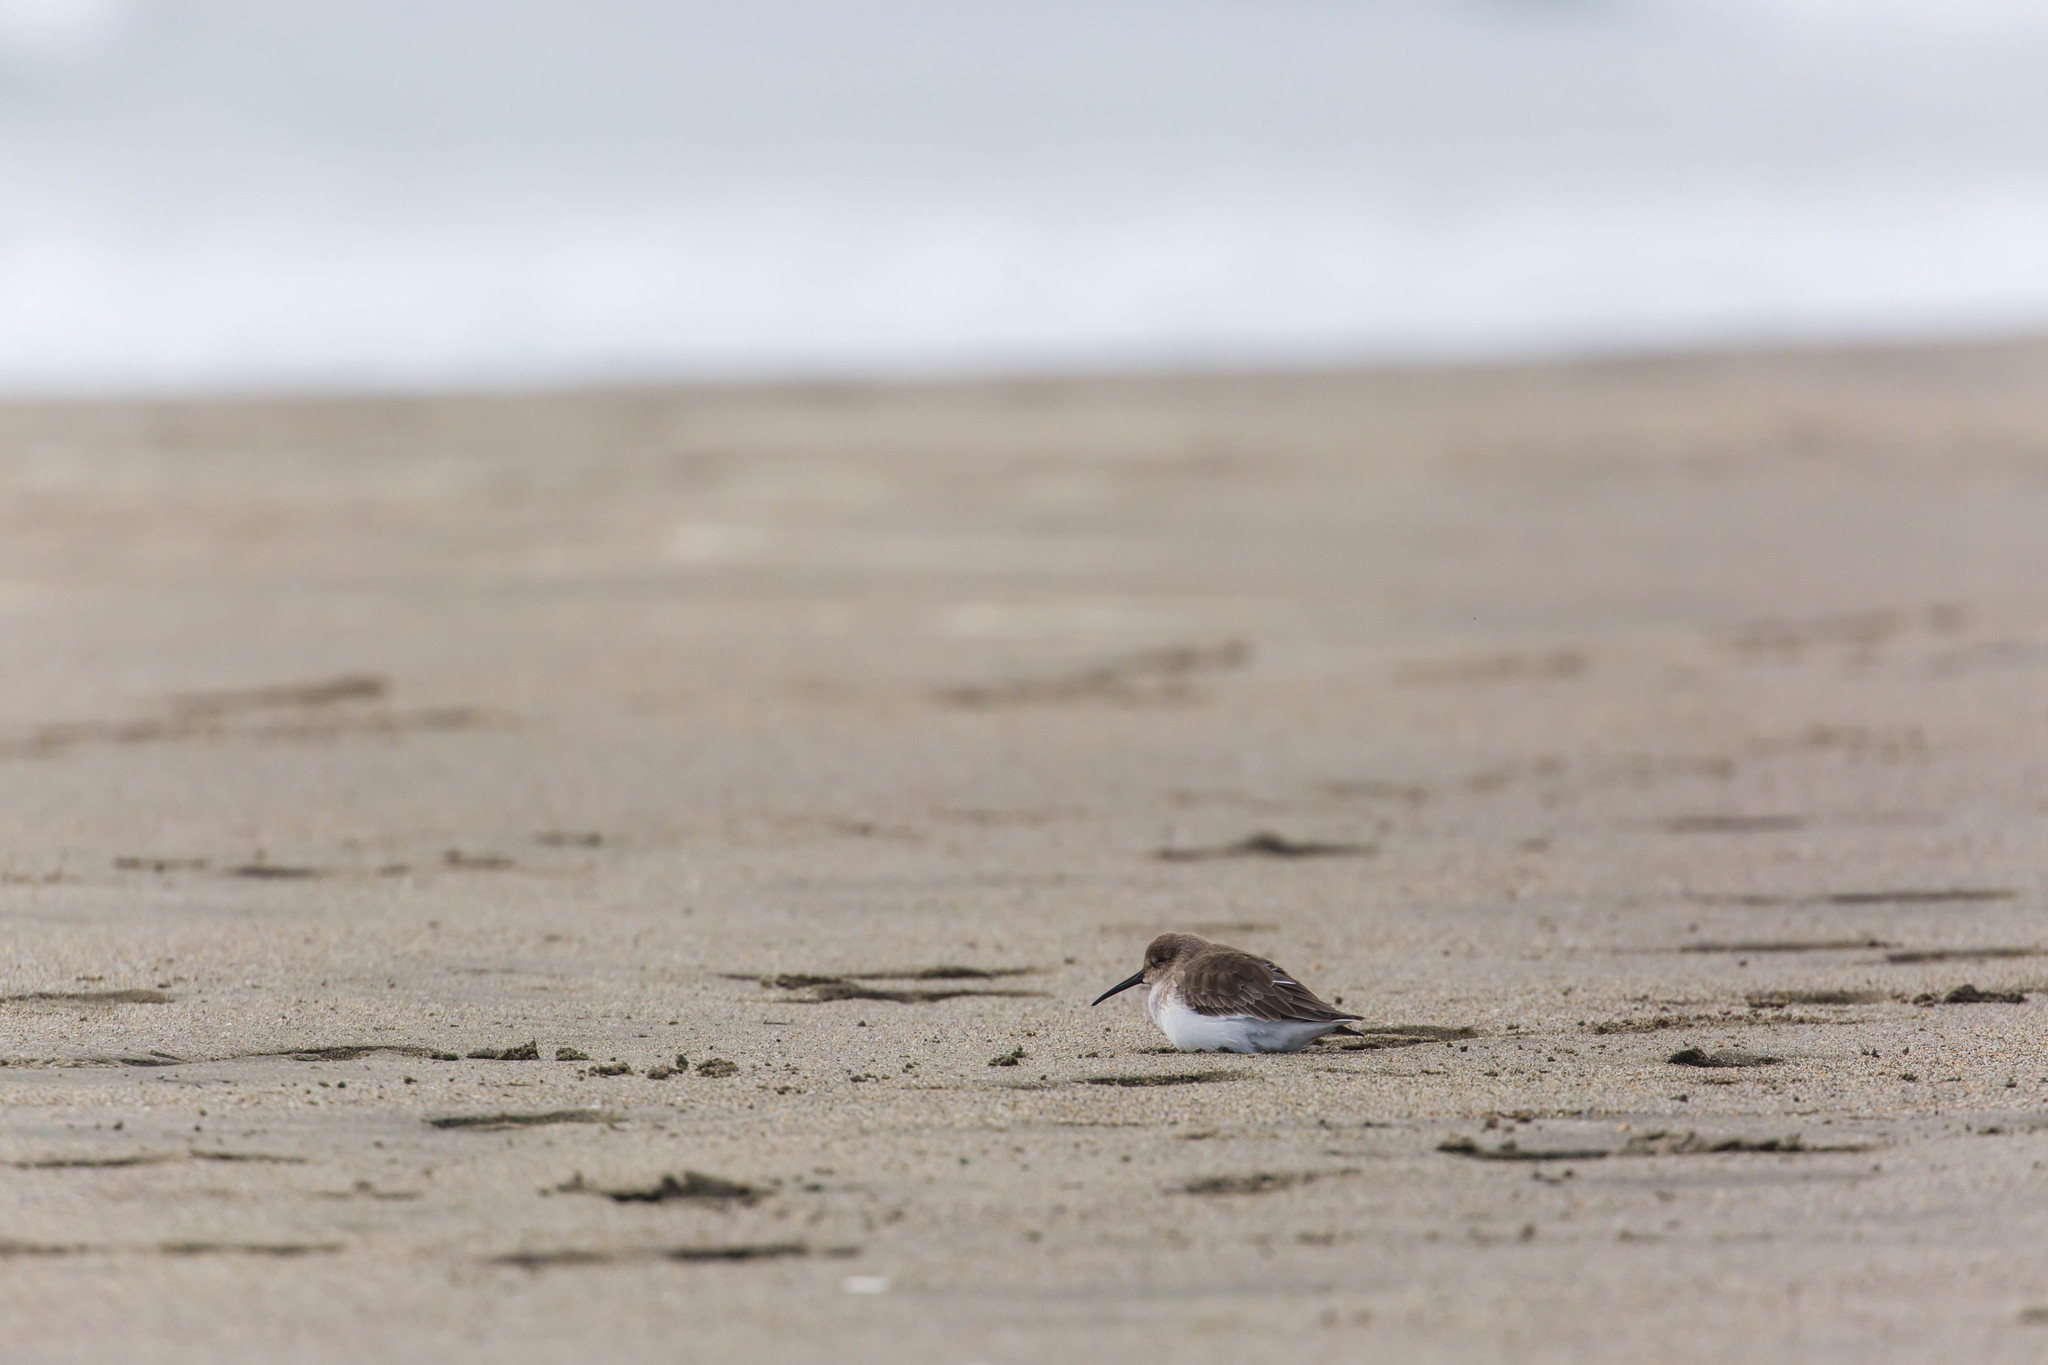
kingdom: Animalia
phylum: Chordata
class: Aves
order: Charadriiformes
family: Scolopacidae
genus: Calidris
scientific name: Calidris alpina
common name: Dunlin
